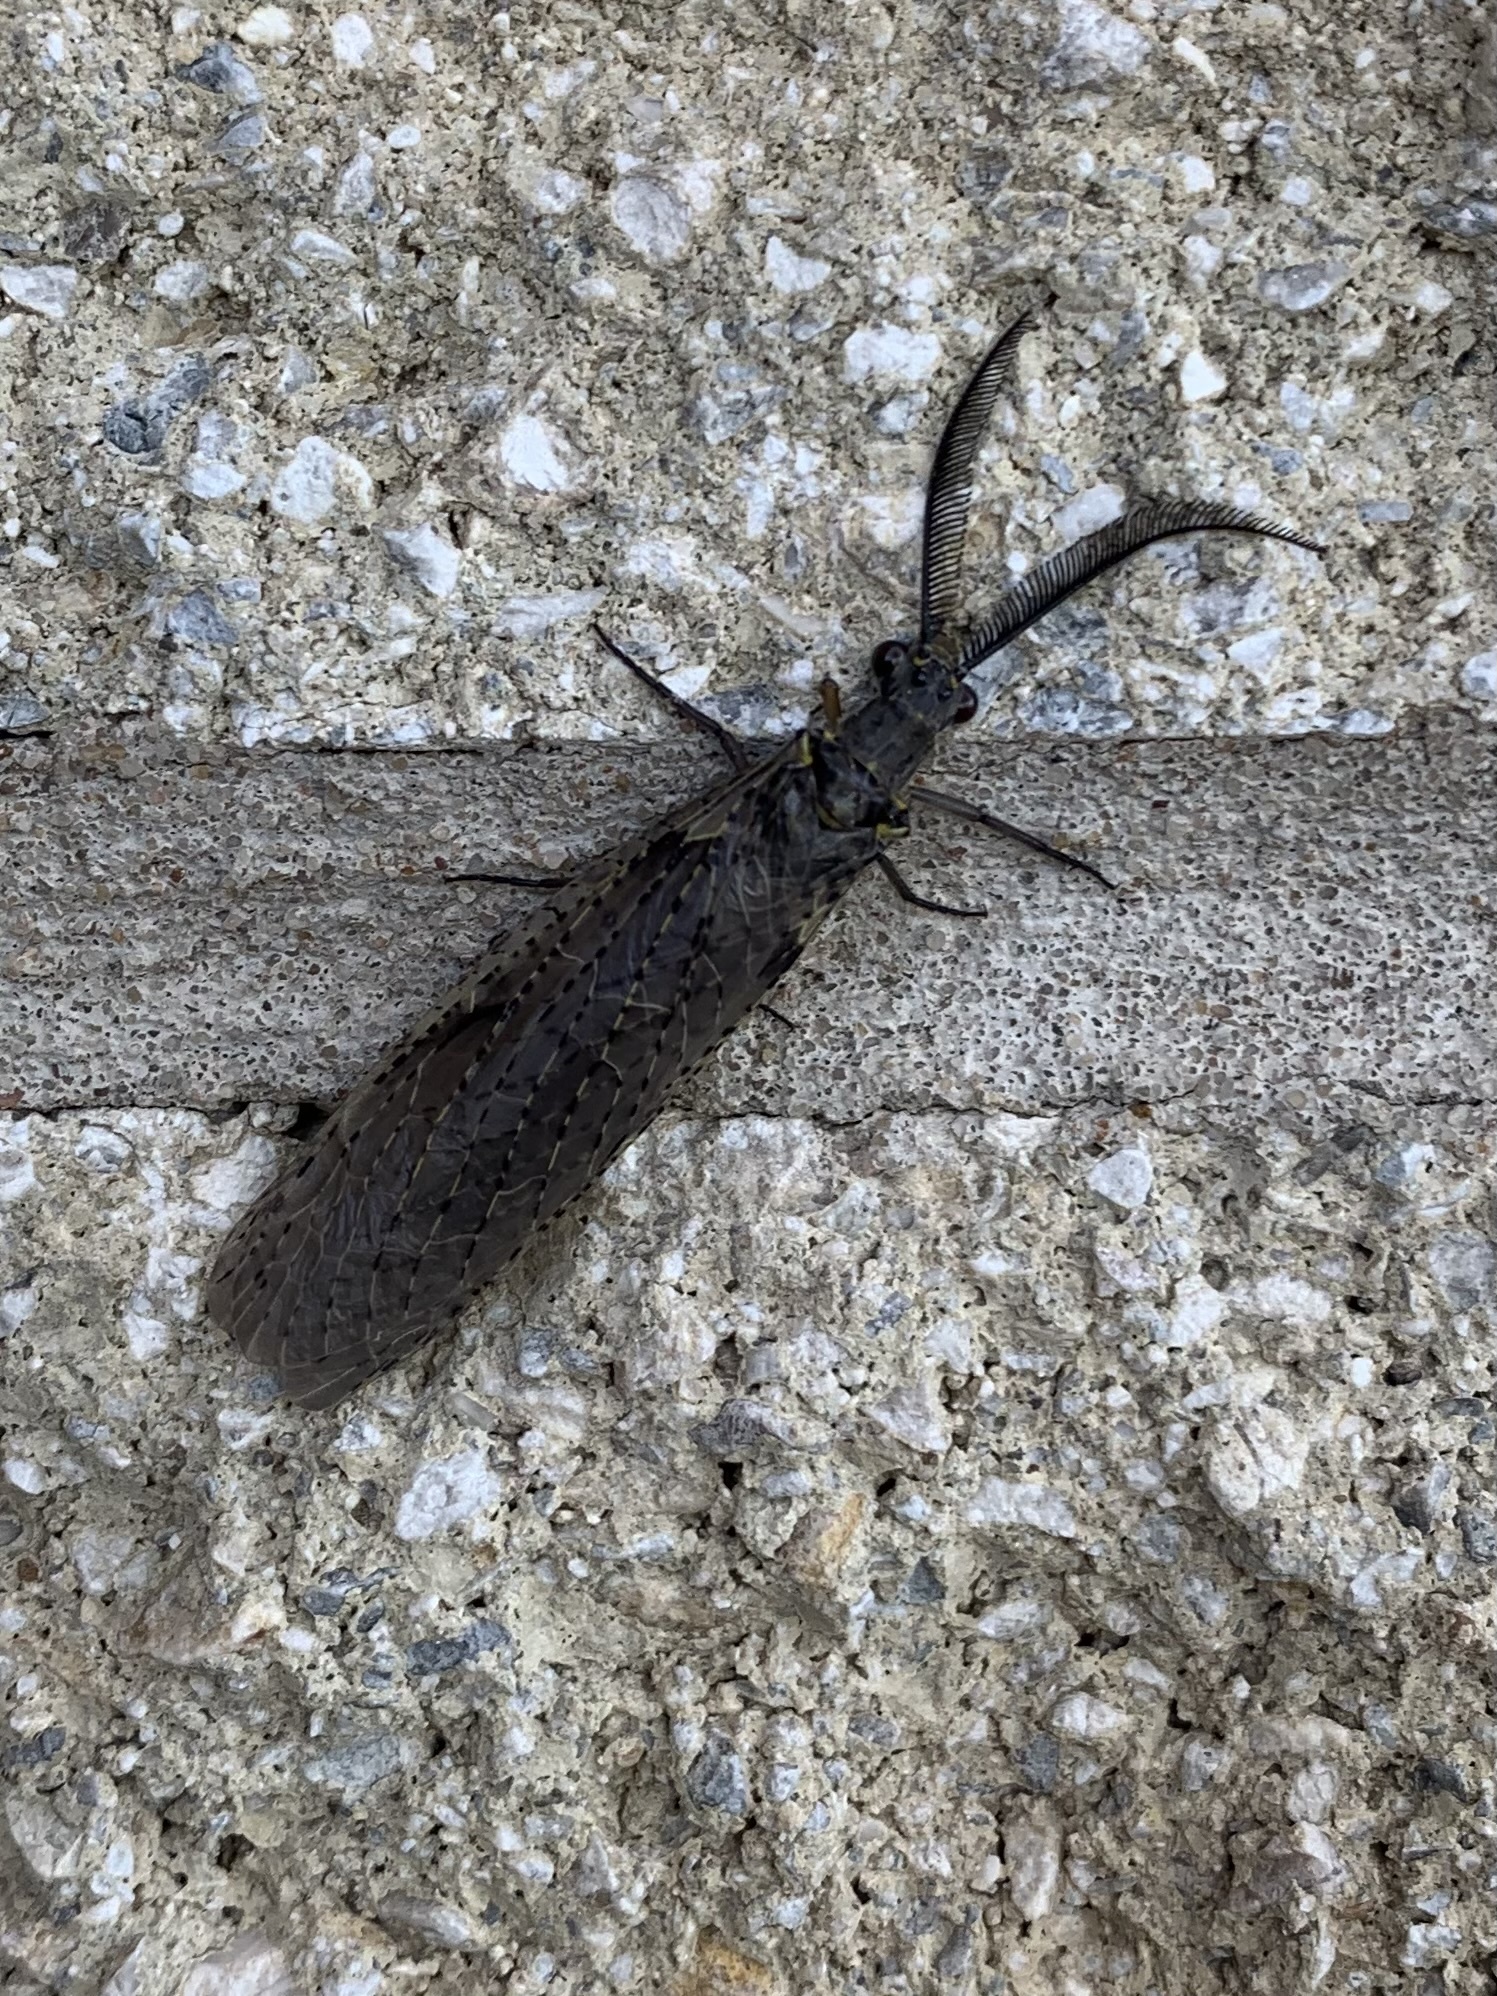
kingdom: Animalia
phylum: Arthropoda
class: Insecta
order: Megaloptera
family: Corydalidae
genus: Chauliodes
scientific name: Chauliodes rastricornis
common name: Spring fishfly
